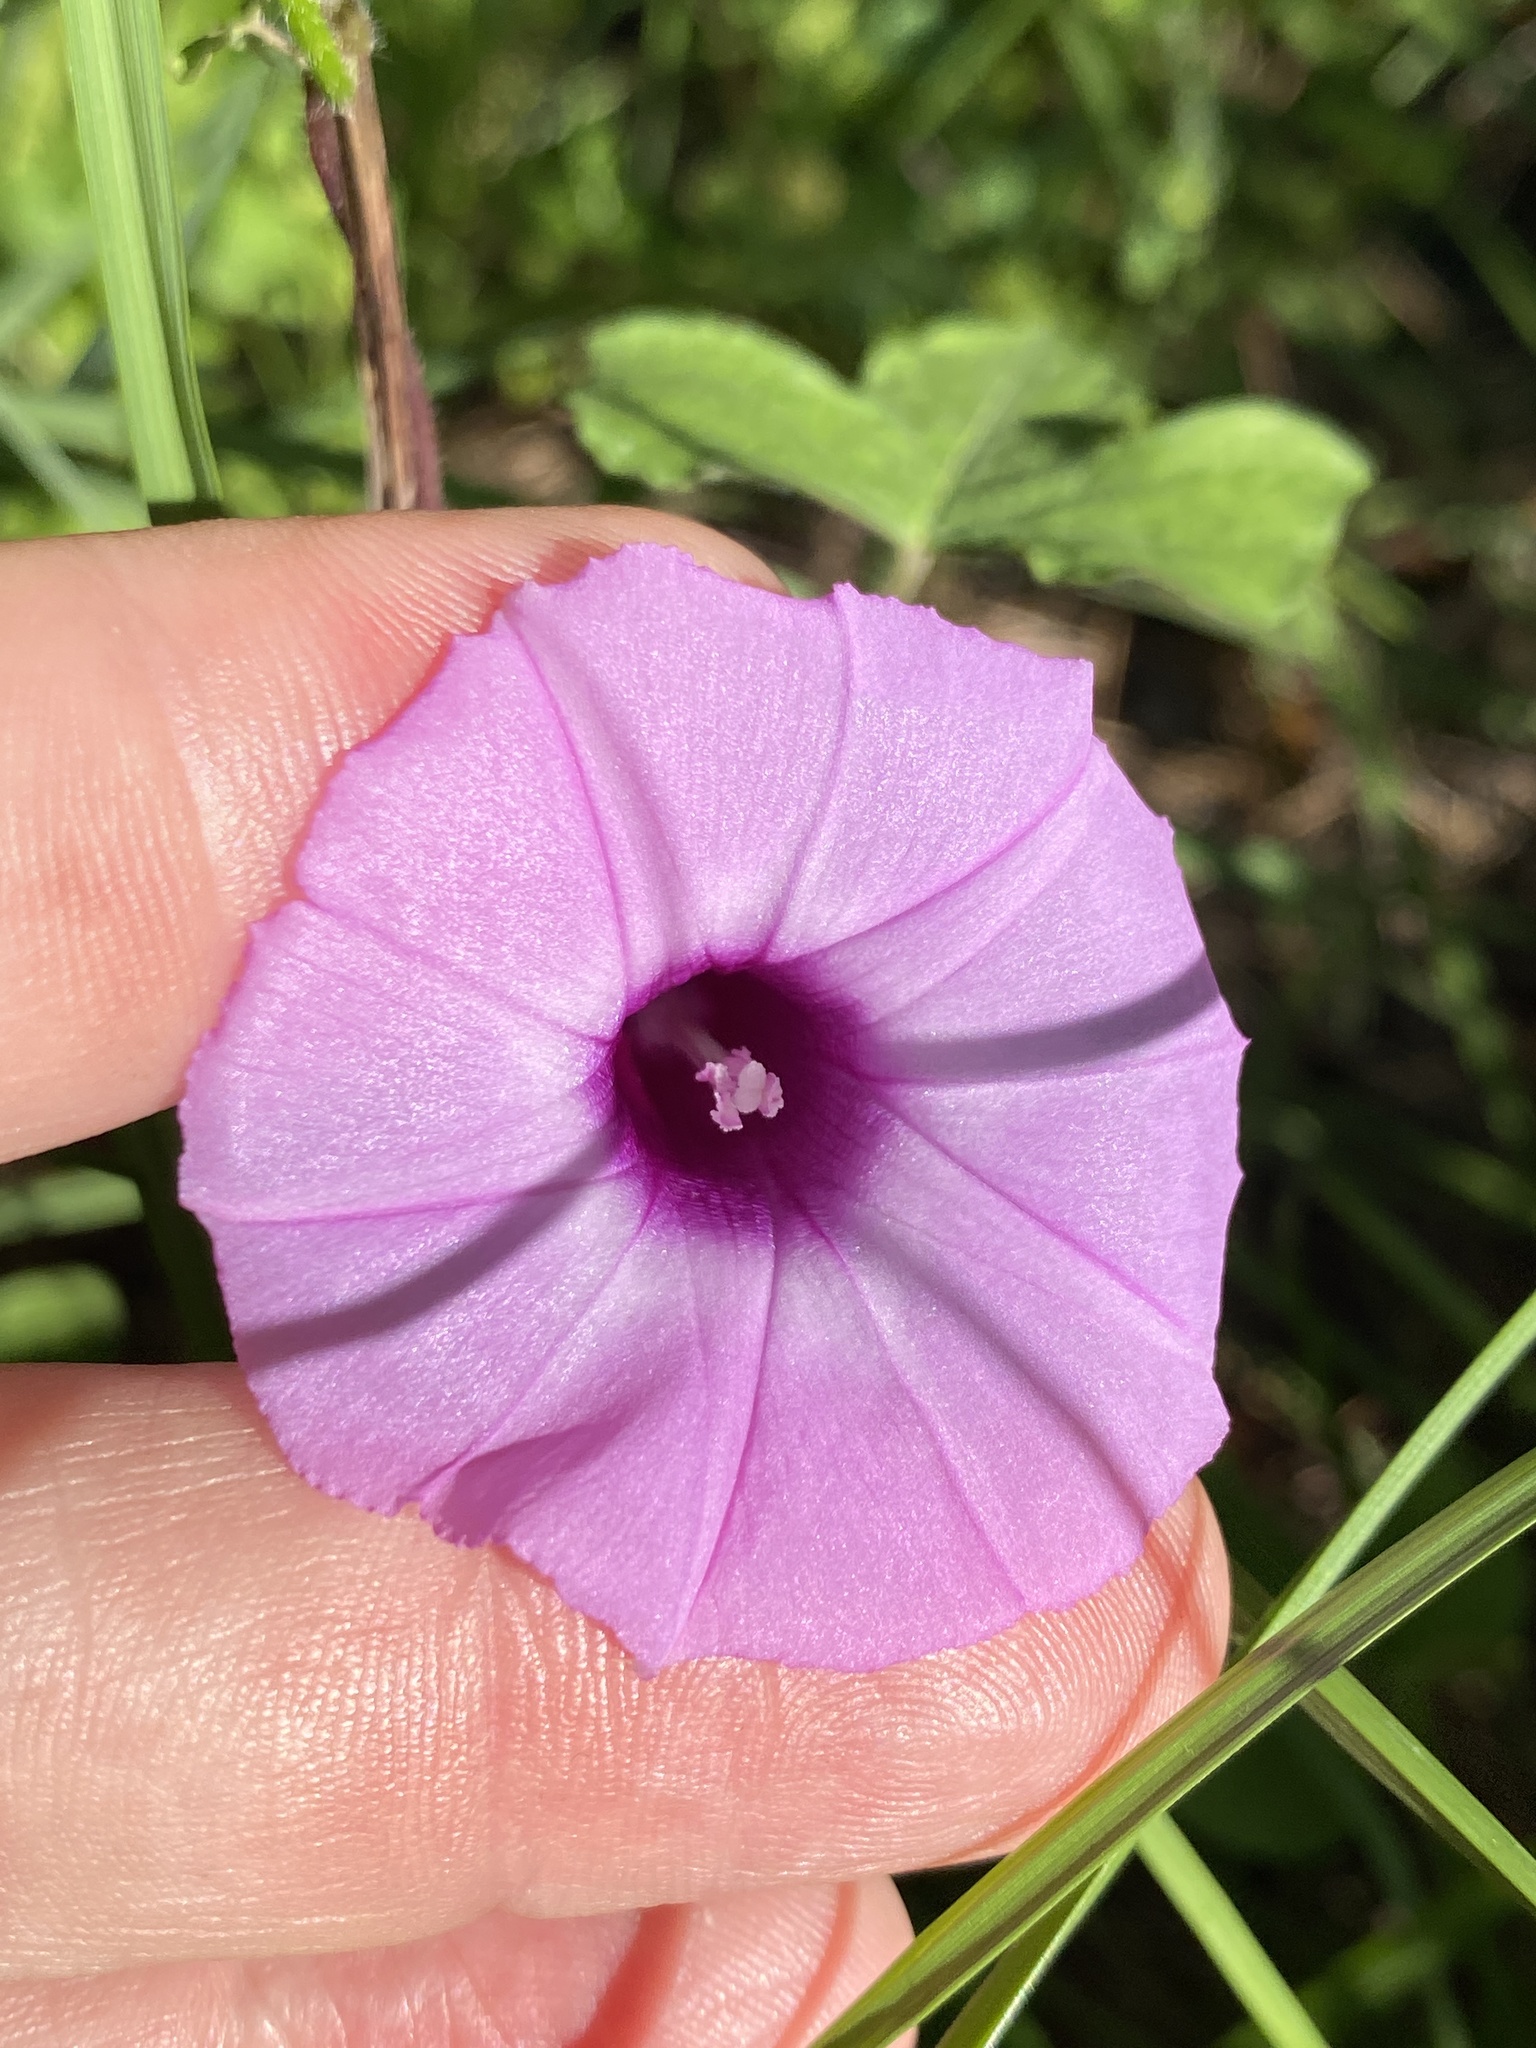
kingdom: Plantae
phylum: Tracheophyta
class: Magnoliopsida
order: Solanales
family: Convolvulaceae
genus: Ipomoea
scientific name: Ipomoea cordatotriloba
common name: Cotton morning glory
